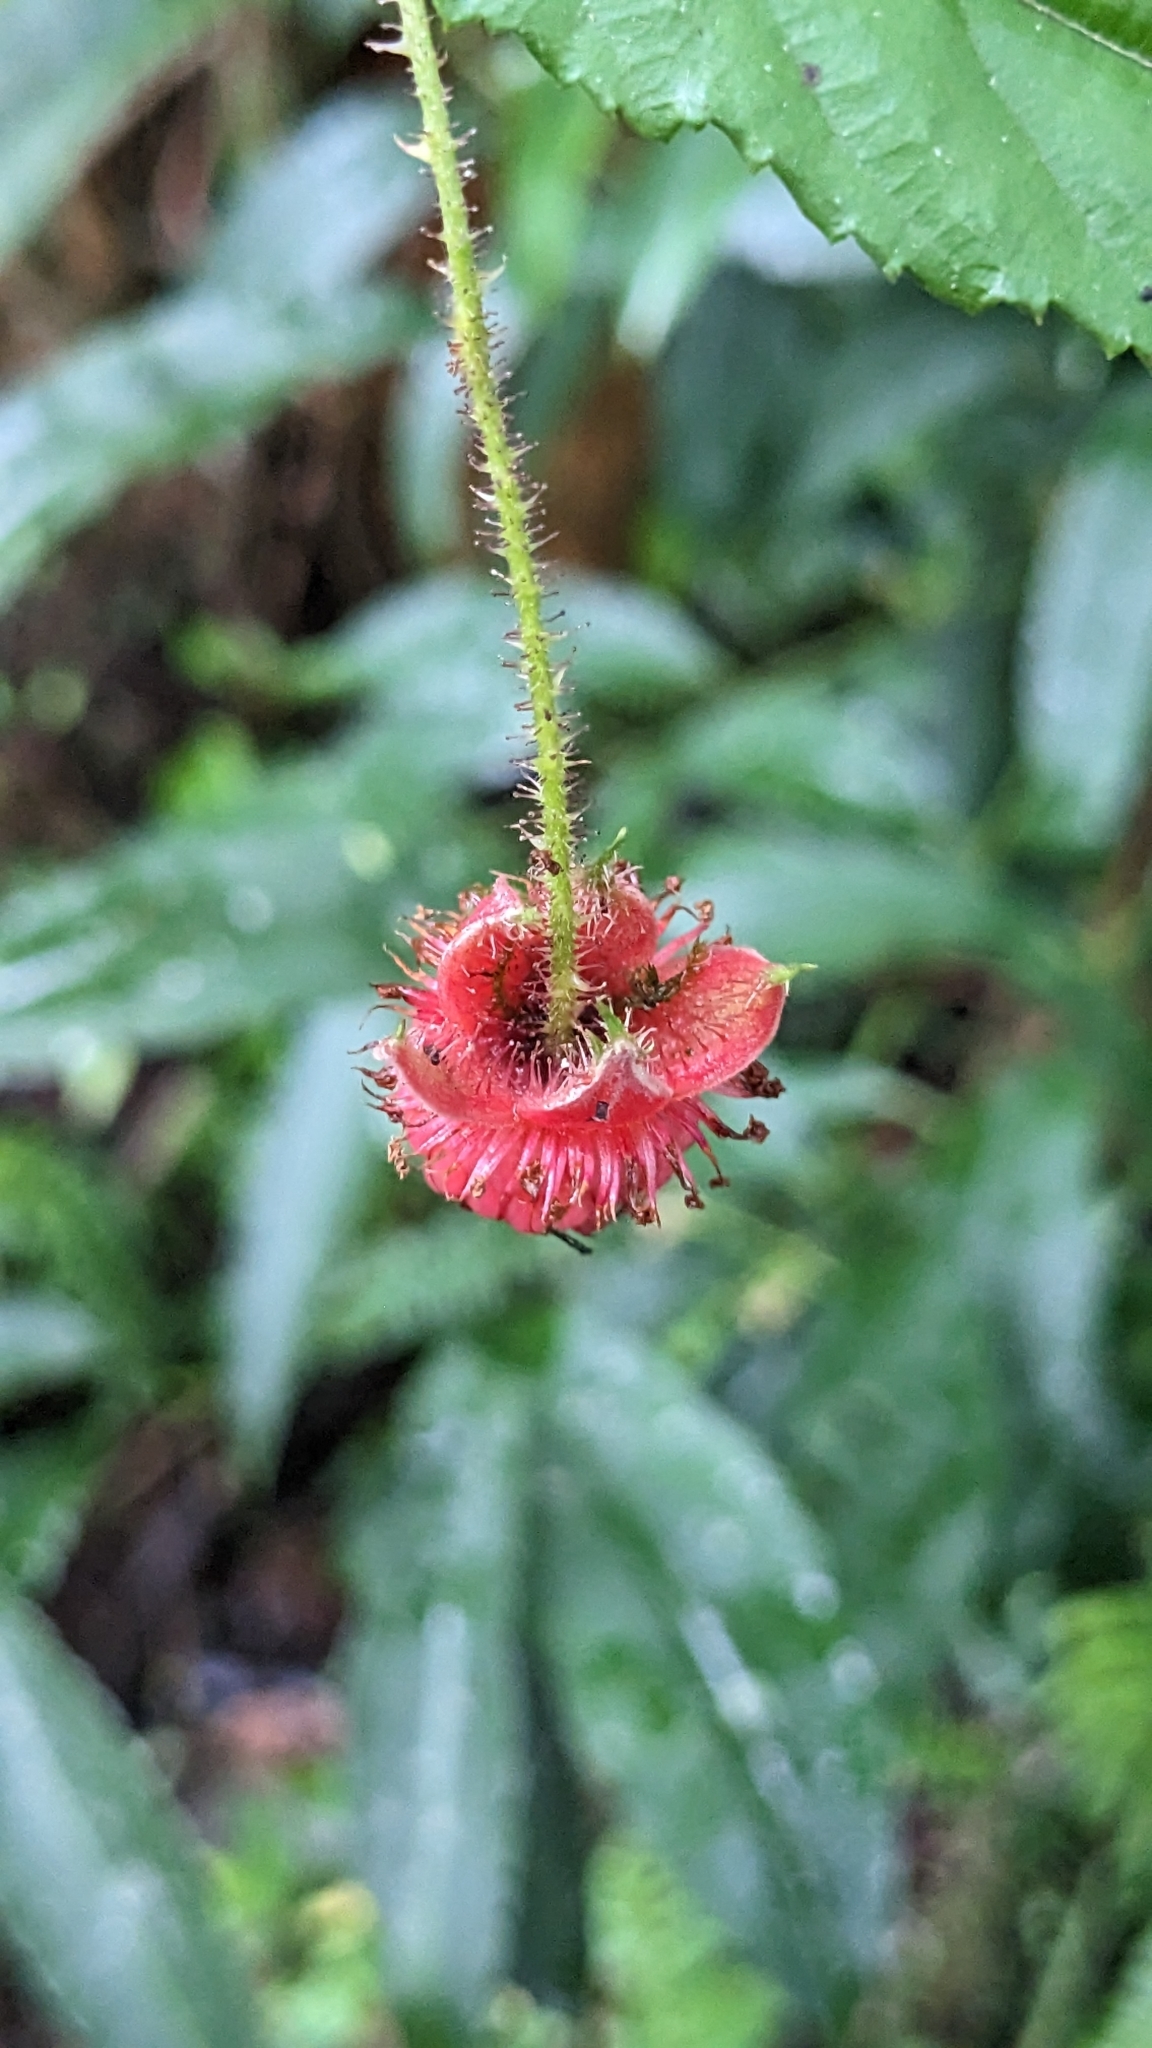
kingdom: Plantae
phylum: Tracheophyta
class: Magnoliopsida
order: Rosales
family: Rosaceae
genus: Rubus
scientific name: Rubus swinhoei
